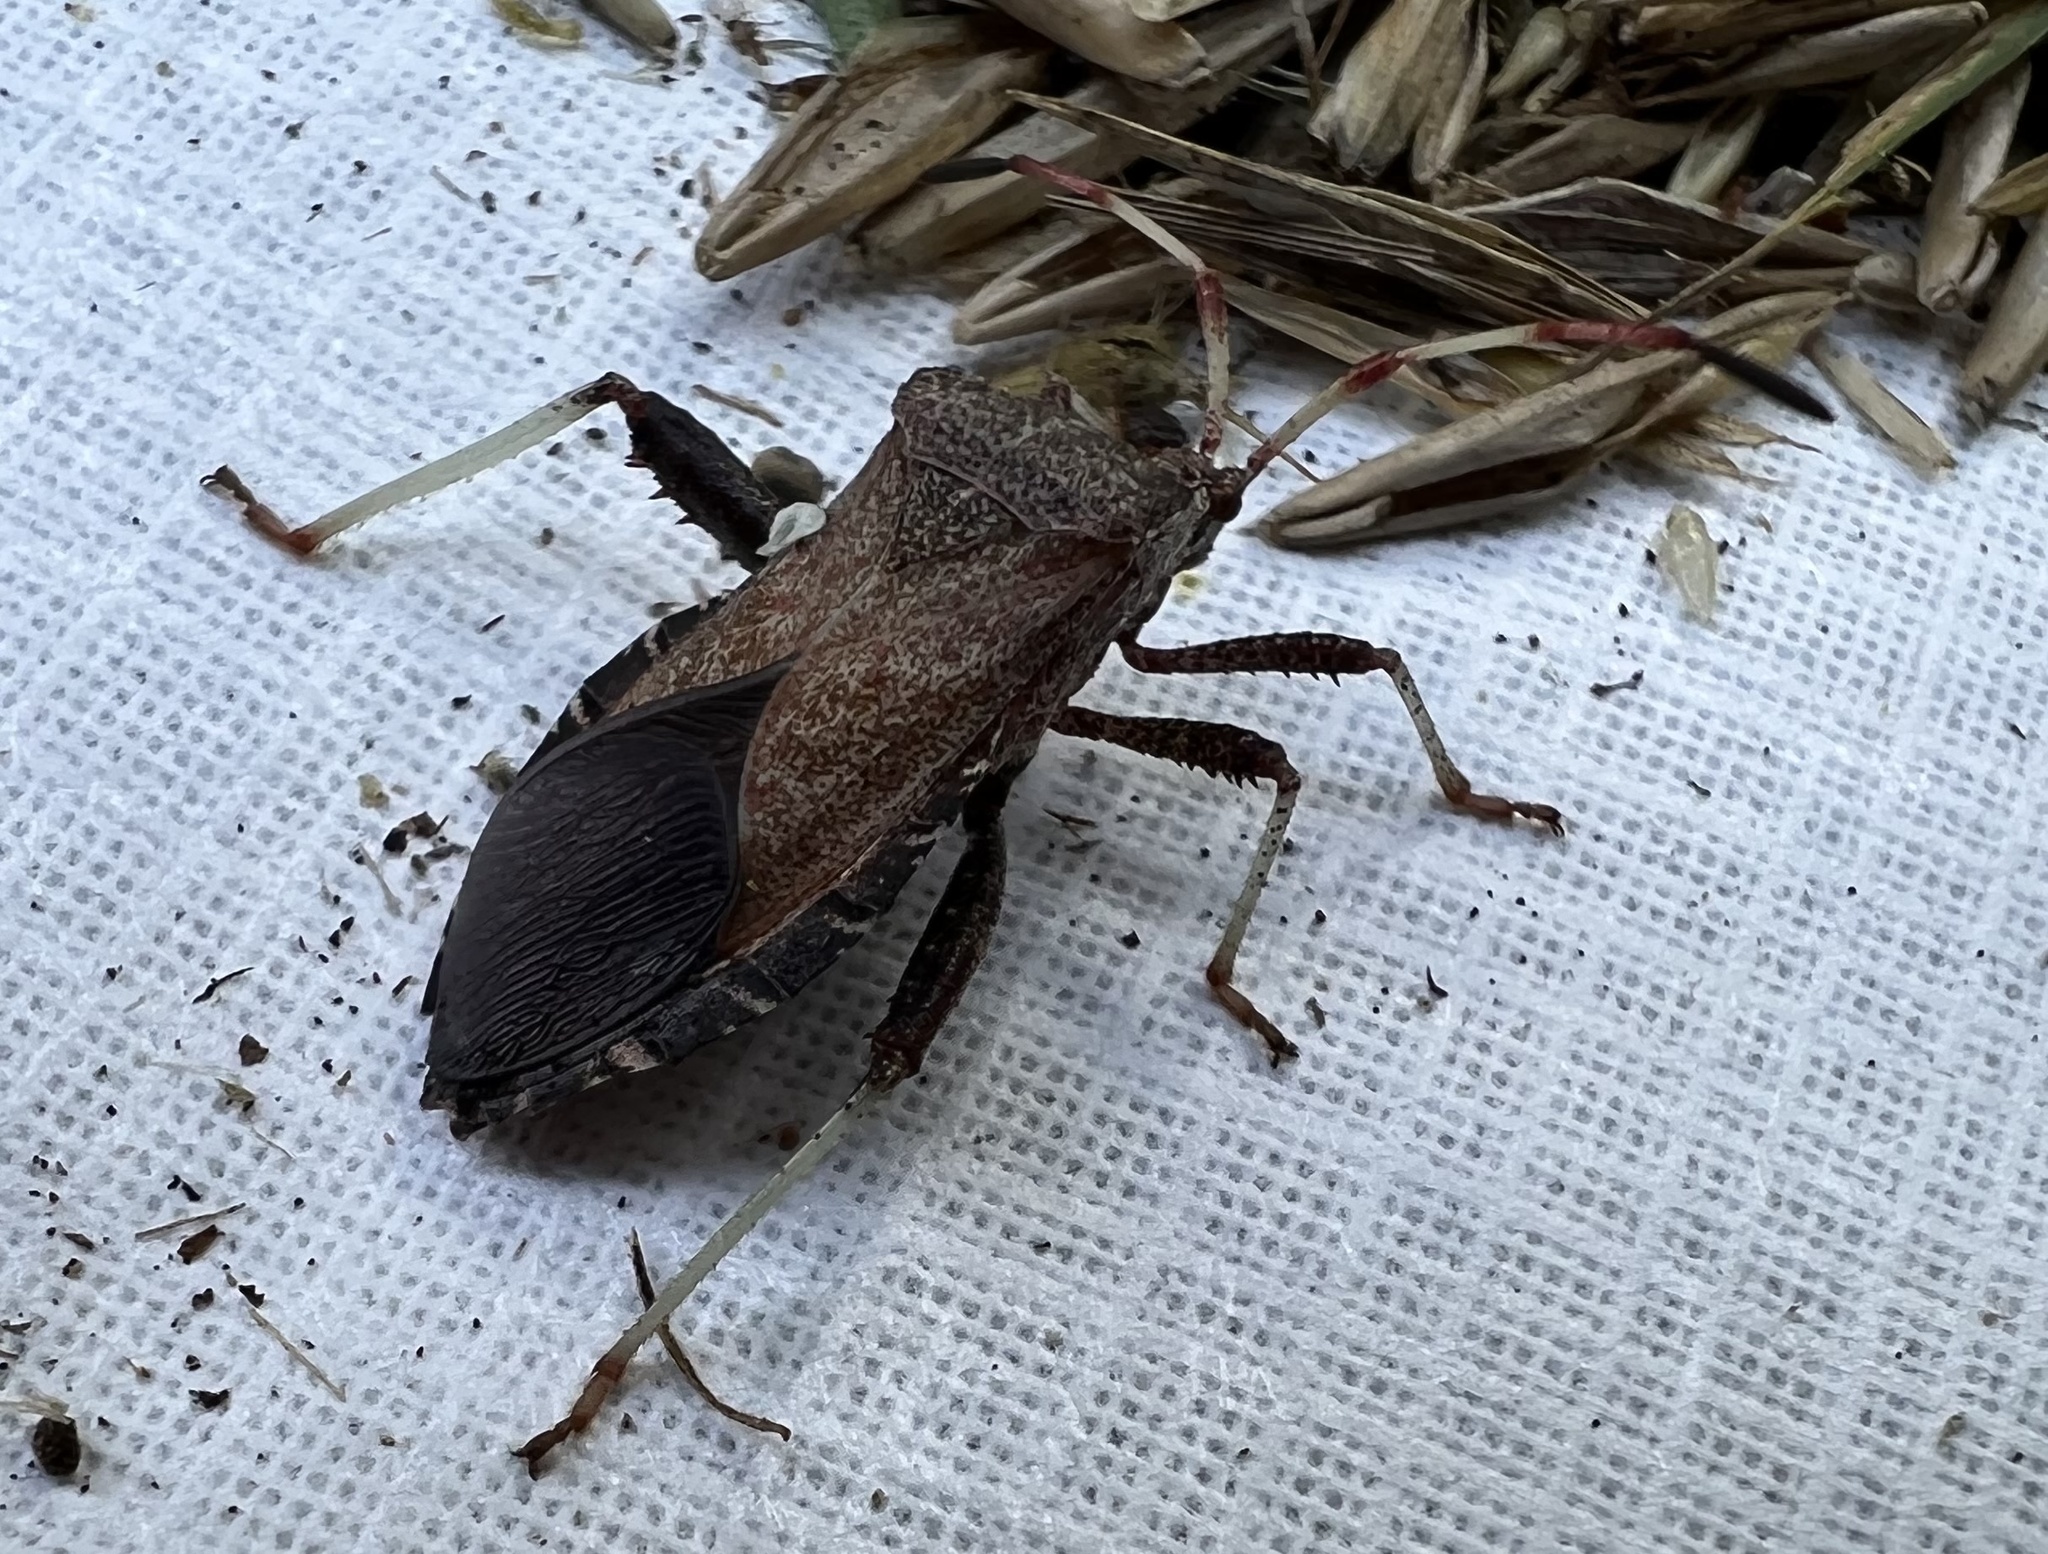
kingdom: Animalia
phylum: Arthropoda
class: Insecta
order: Hemiptera
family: Coreidae
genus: Euthochtha
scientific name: Euthochtha galeator
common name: Helmeted squash bug
